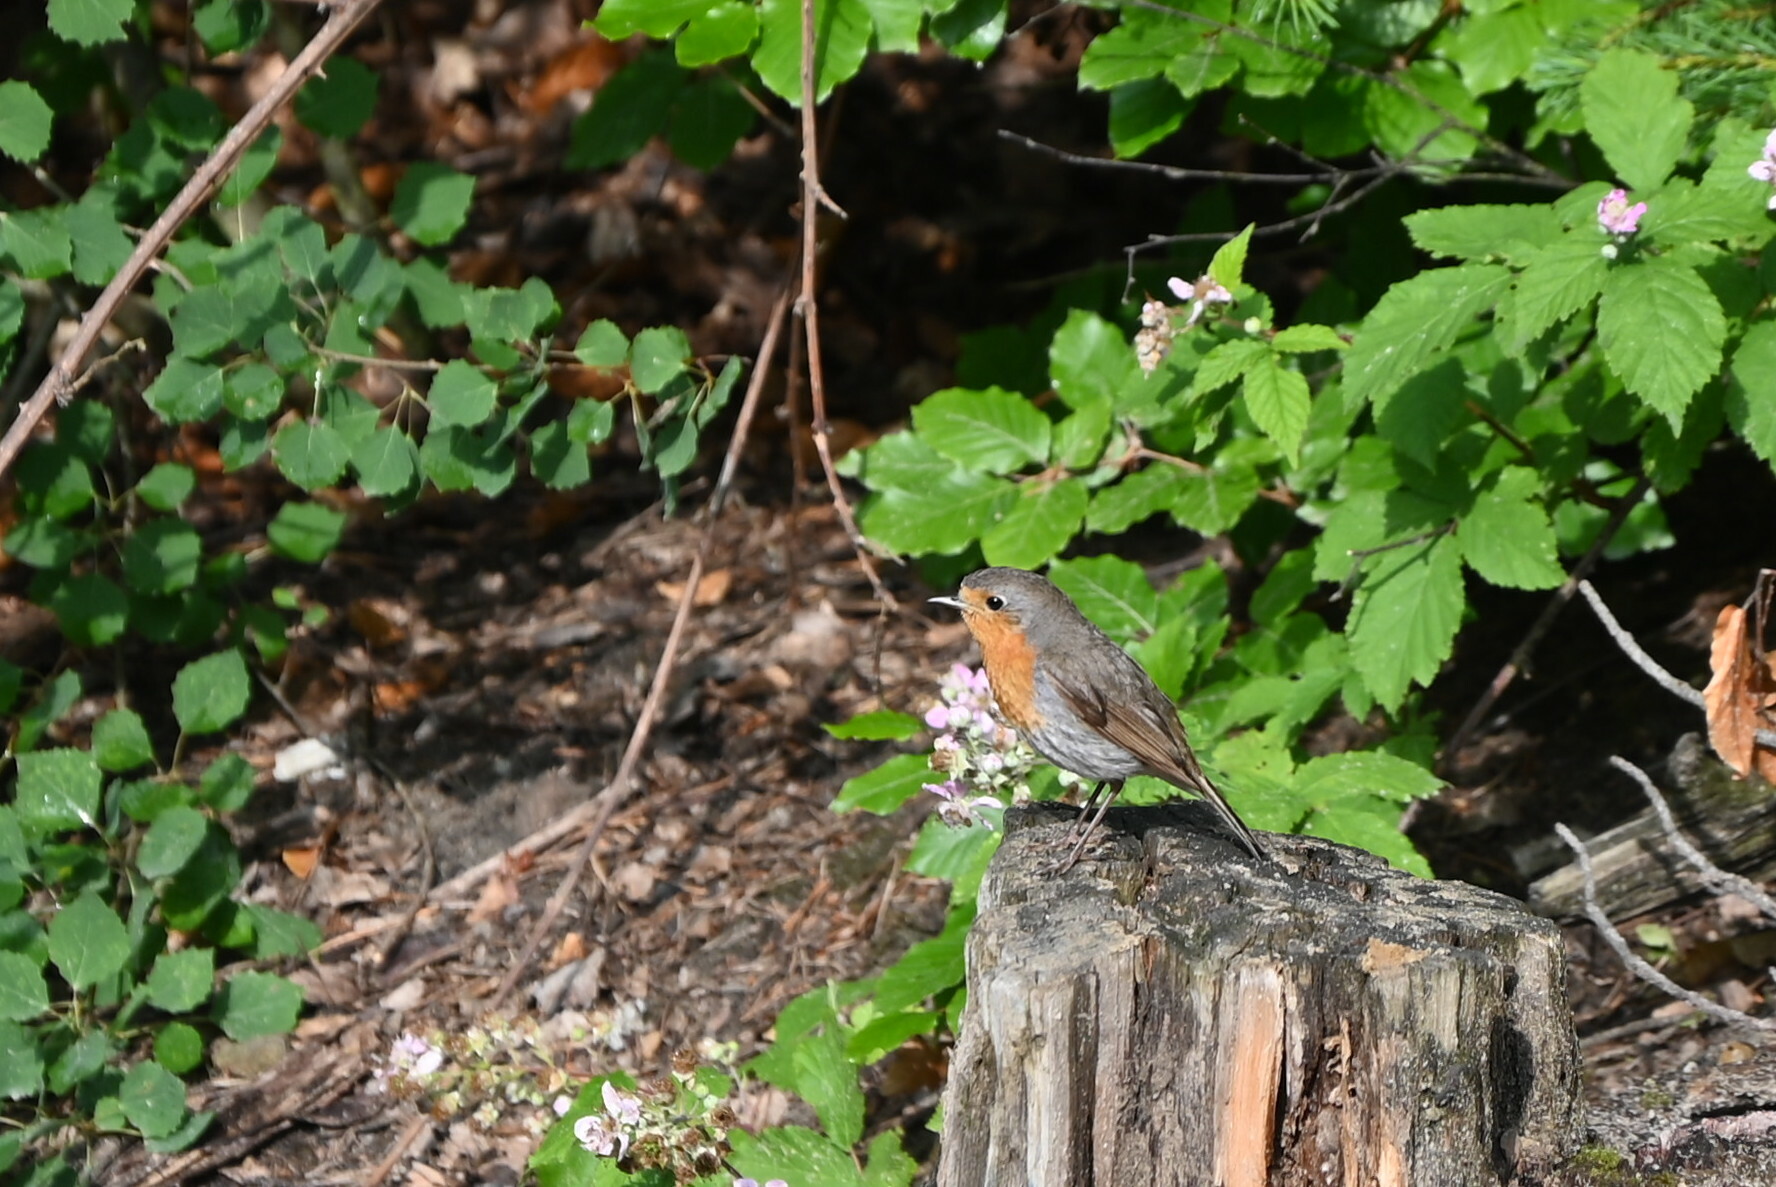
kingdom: Animalia
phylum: Chordata
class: Aves
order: Passeriformes
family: Muscicapidae
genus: Erithacus
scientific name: Erithacus rubecula
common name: European robin
